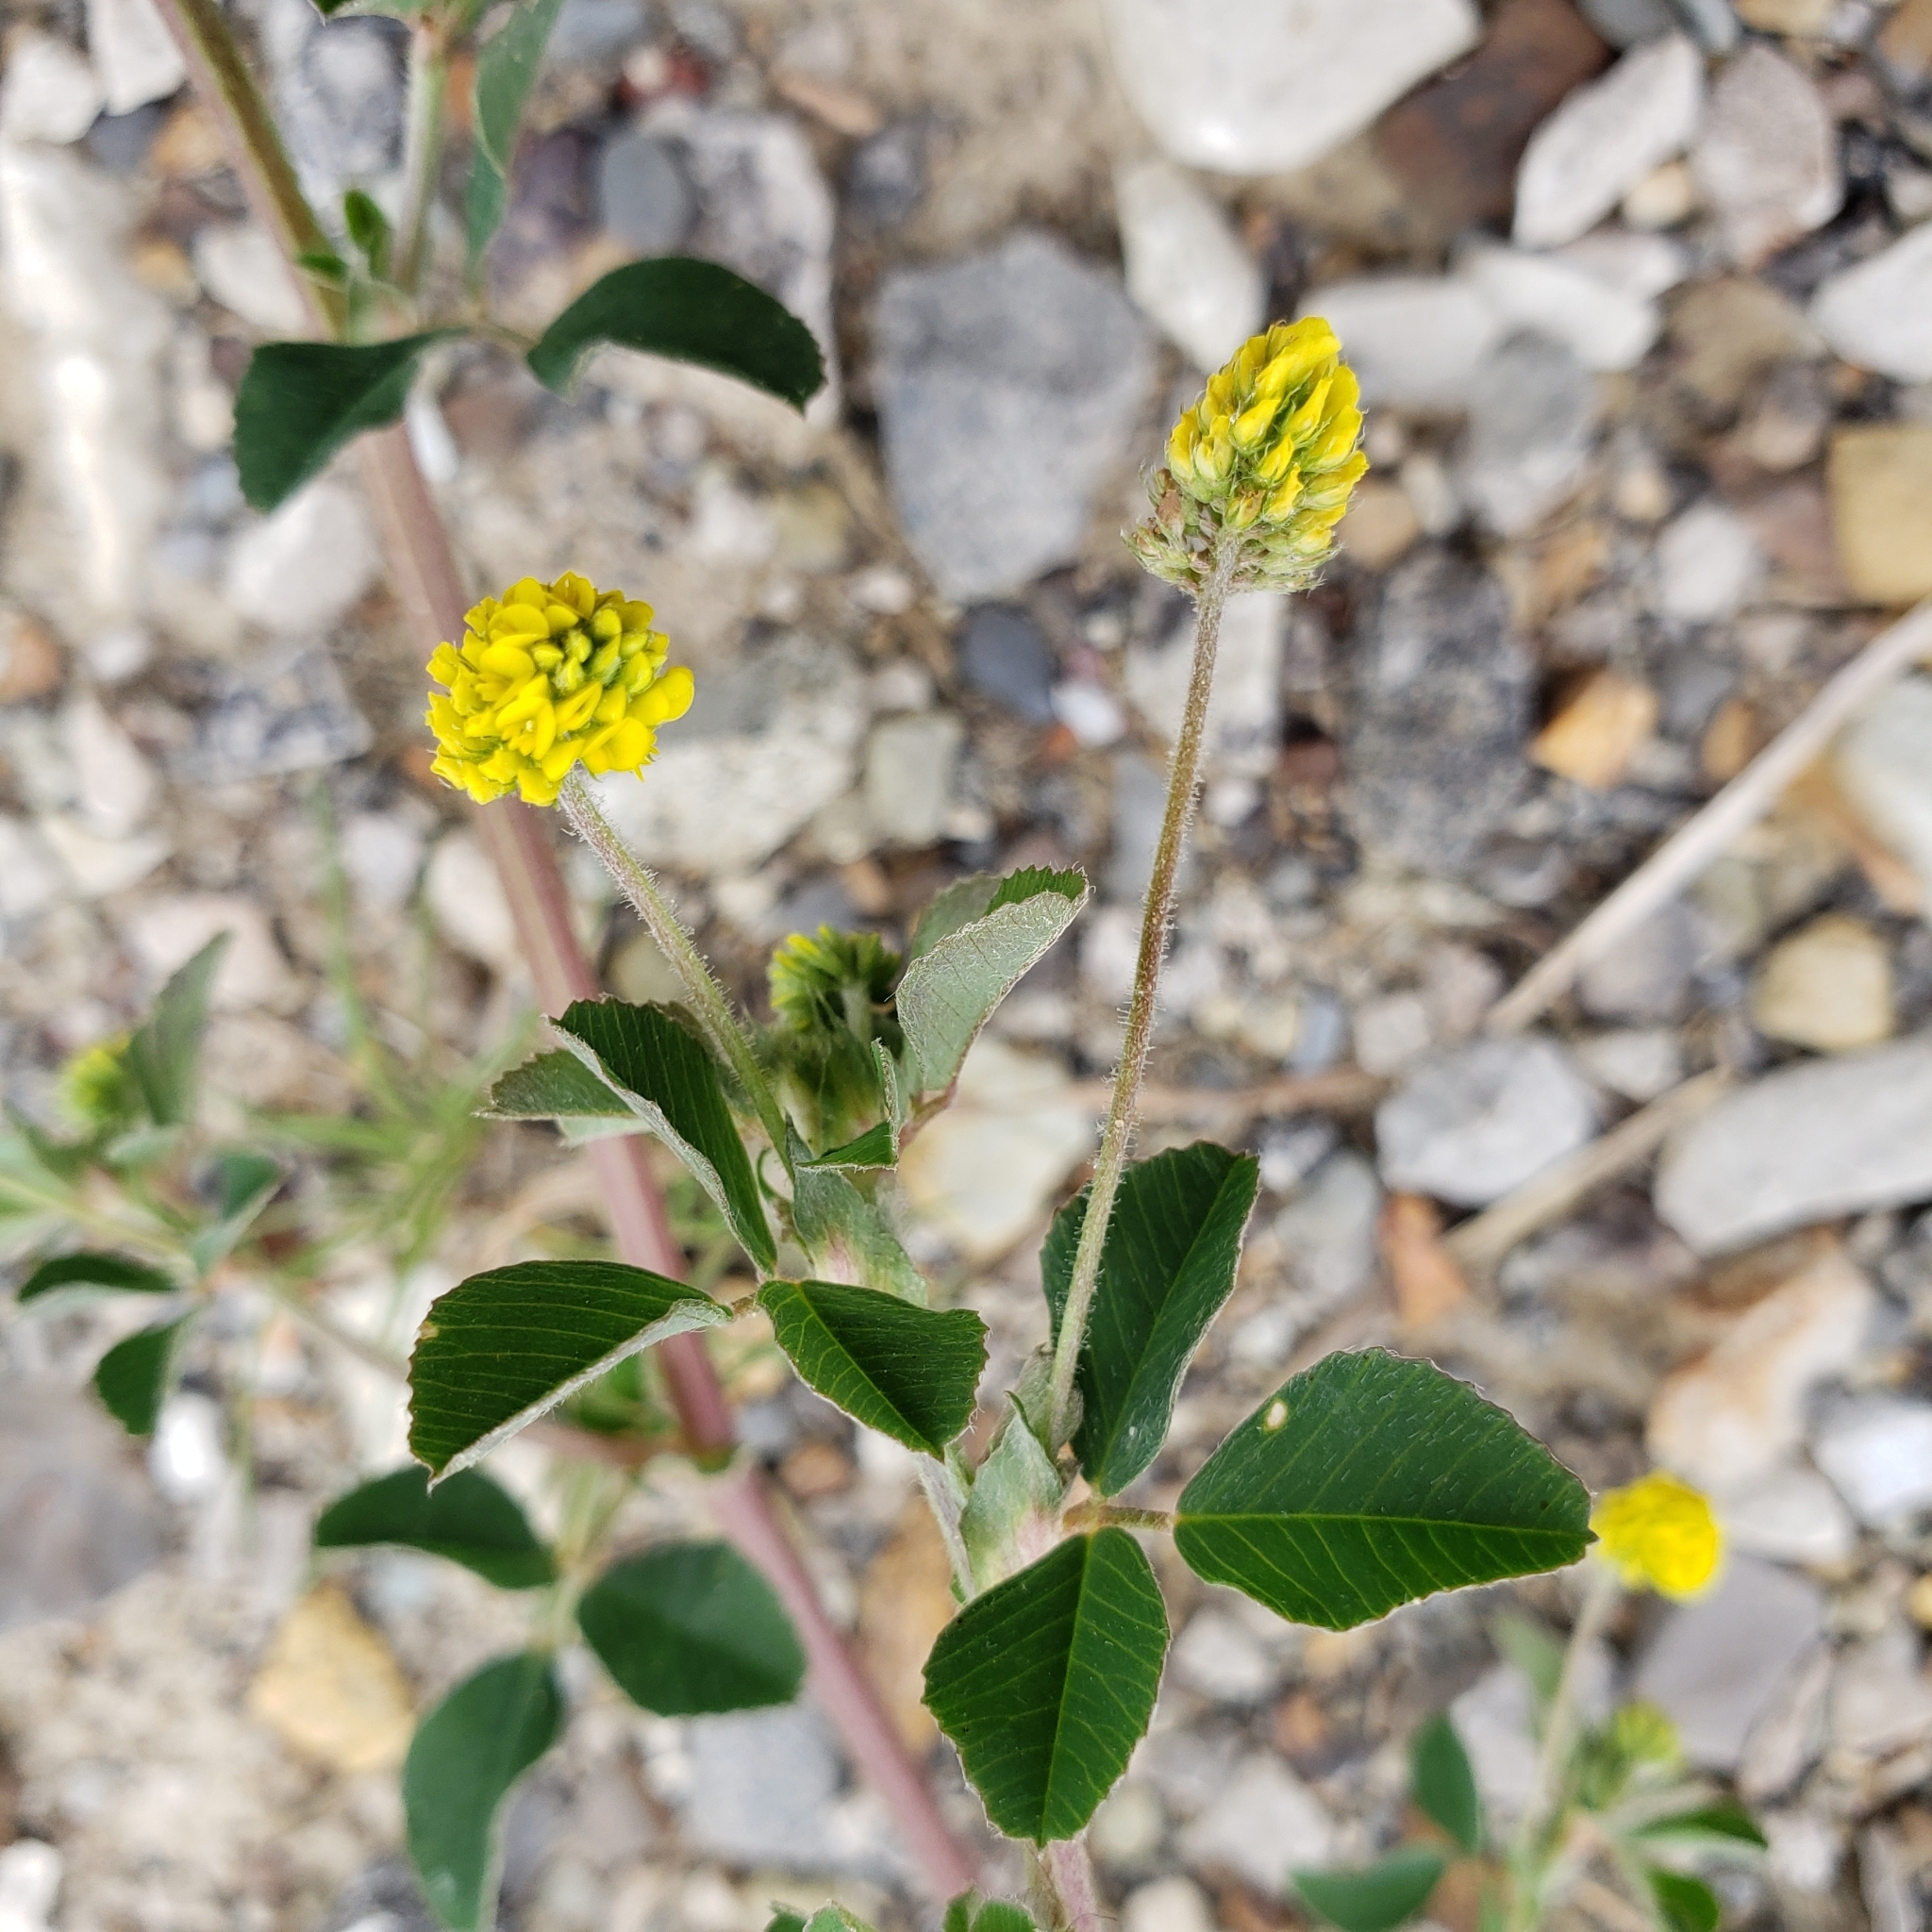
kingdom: Plantae
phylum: Tracheophyta
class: Magnoliopsida
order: Fabales
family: Fabaceae
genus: Medicago
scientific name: Medicago lupulina
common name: Black medick
